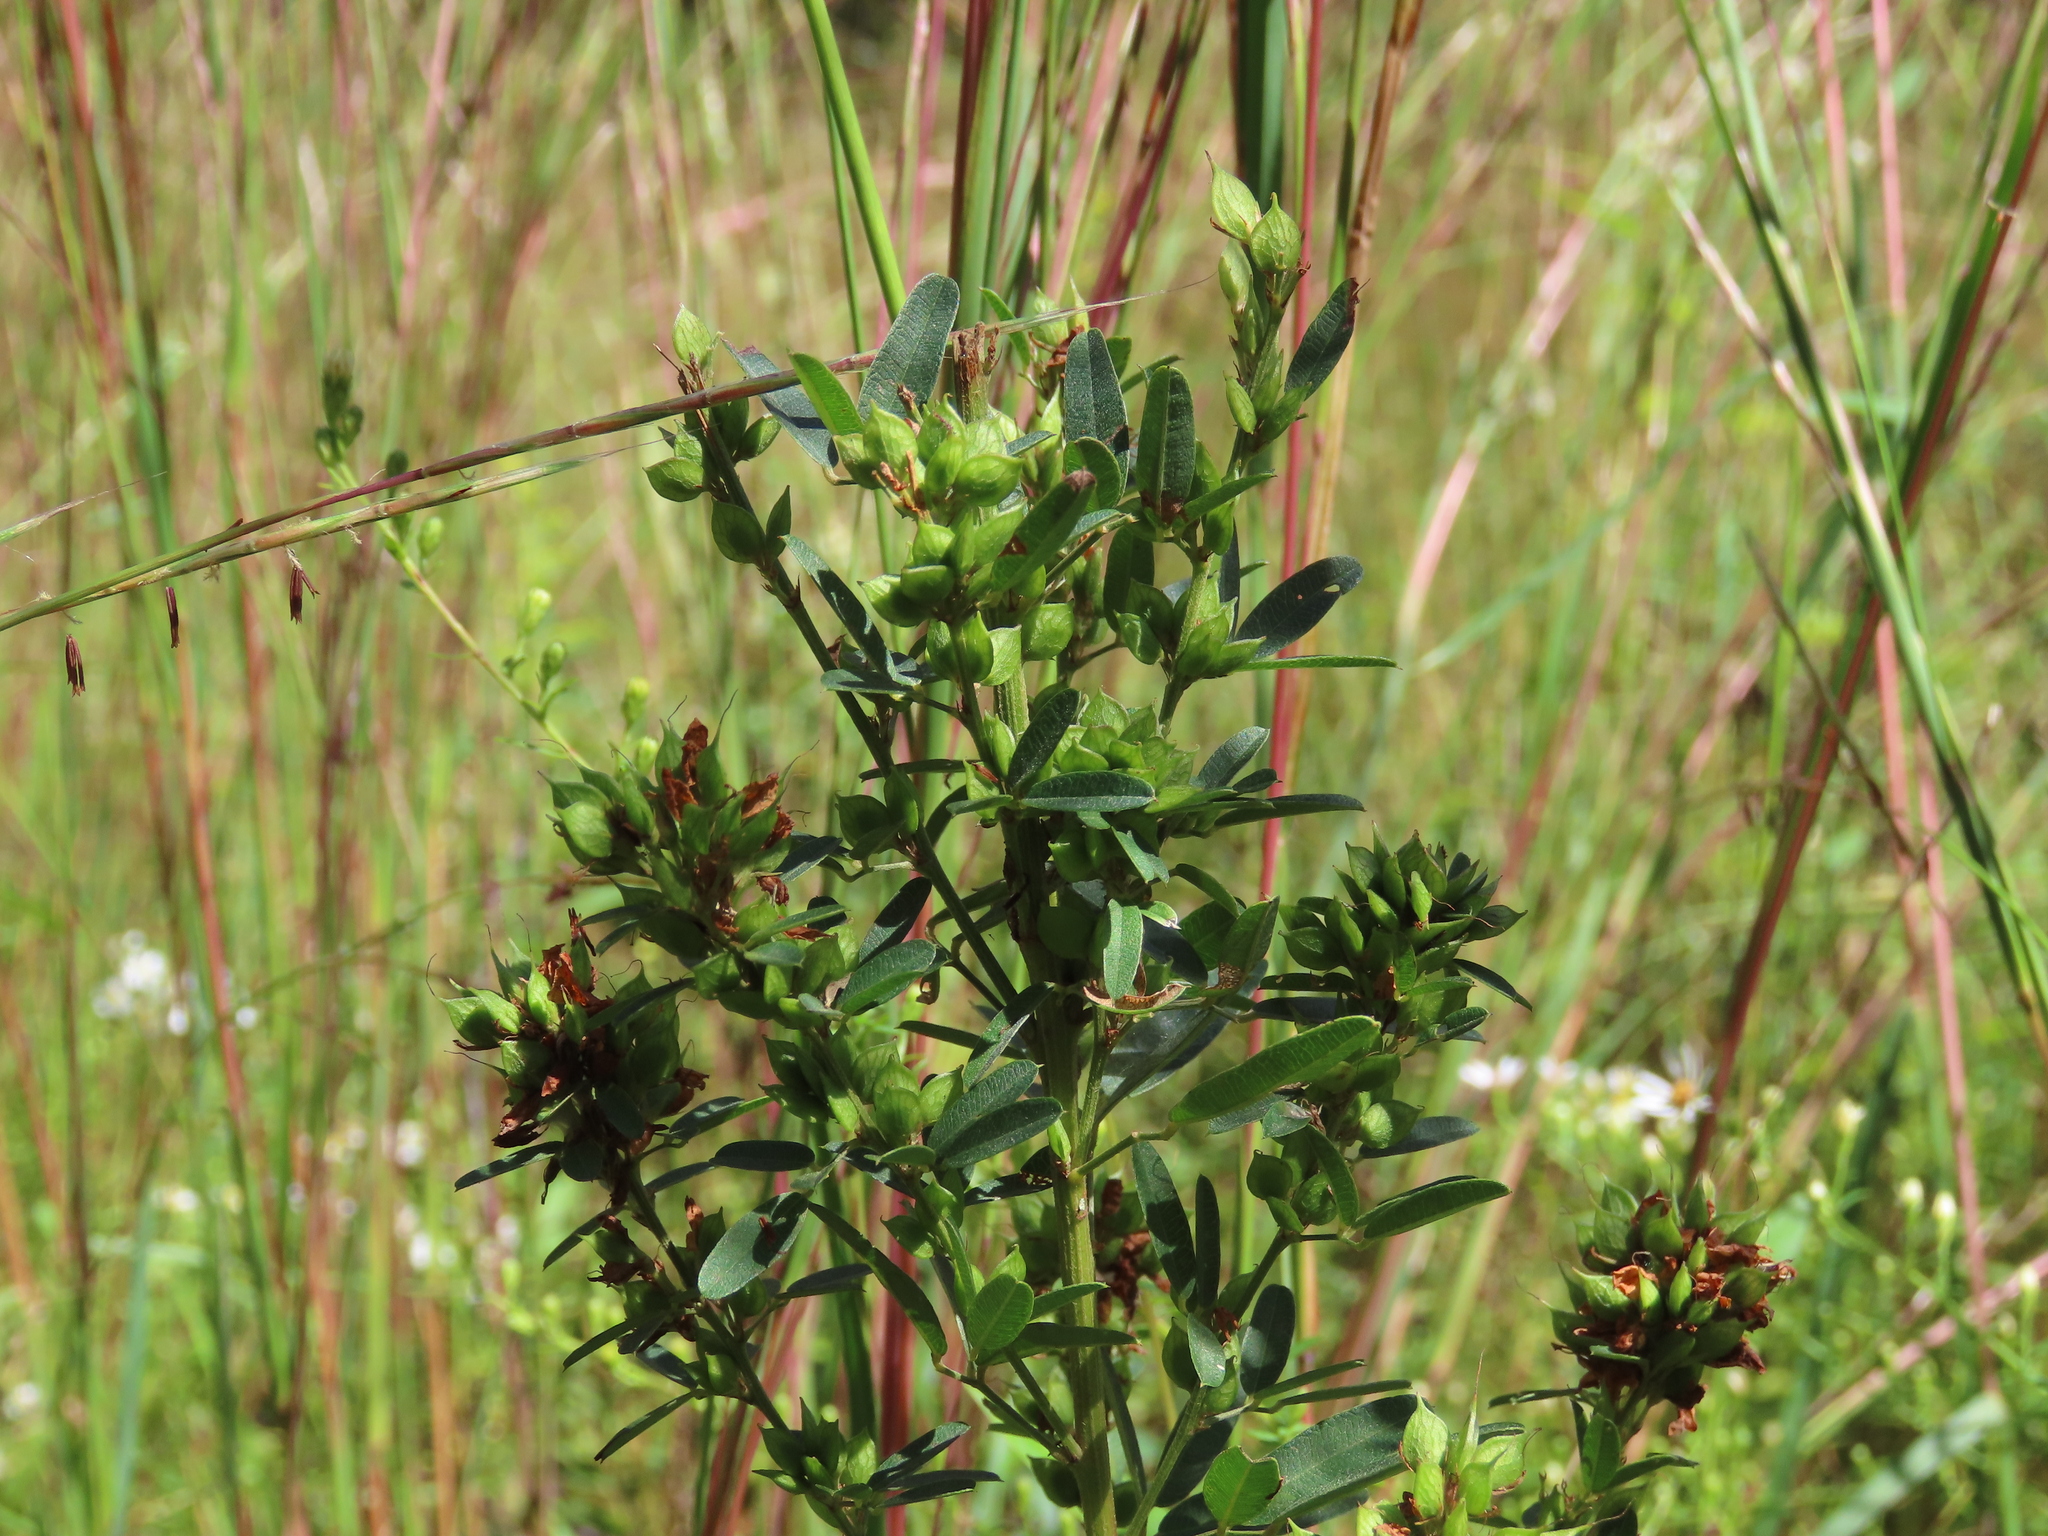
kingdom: Plantae
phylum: Tracheophyta
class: Magnoliopsida
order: Fabales
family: Fabaceae
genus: Lespedeza
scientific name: Lespedeza virginica
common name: Slender bush-clover
